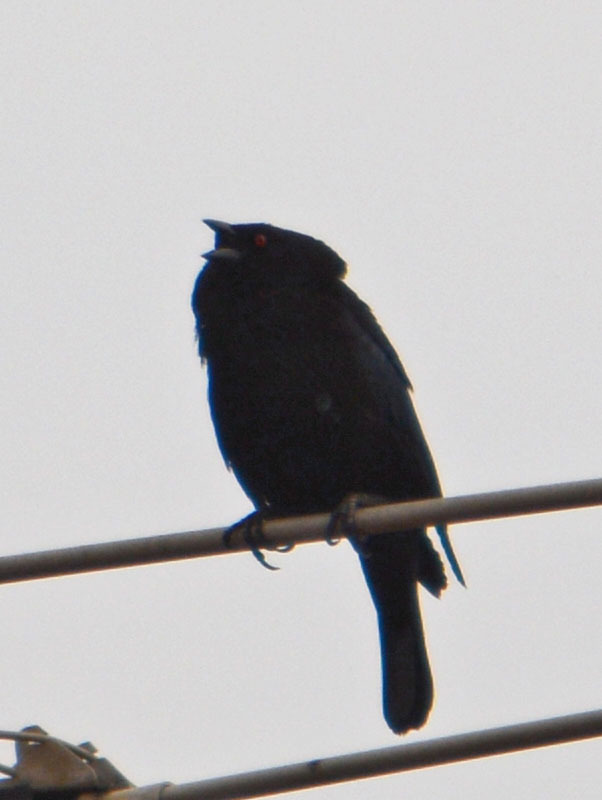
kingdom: Animalia
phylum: Chordata
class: Aves
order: Passeriformes
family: Icteridae
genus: Molothrus
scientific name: Molothrus aeneus
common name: Bronzed cowbird
